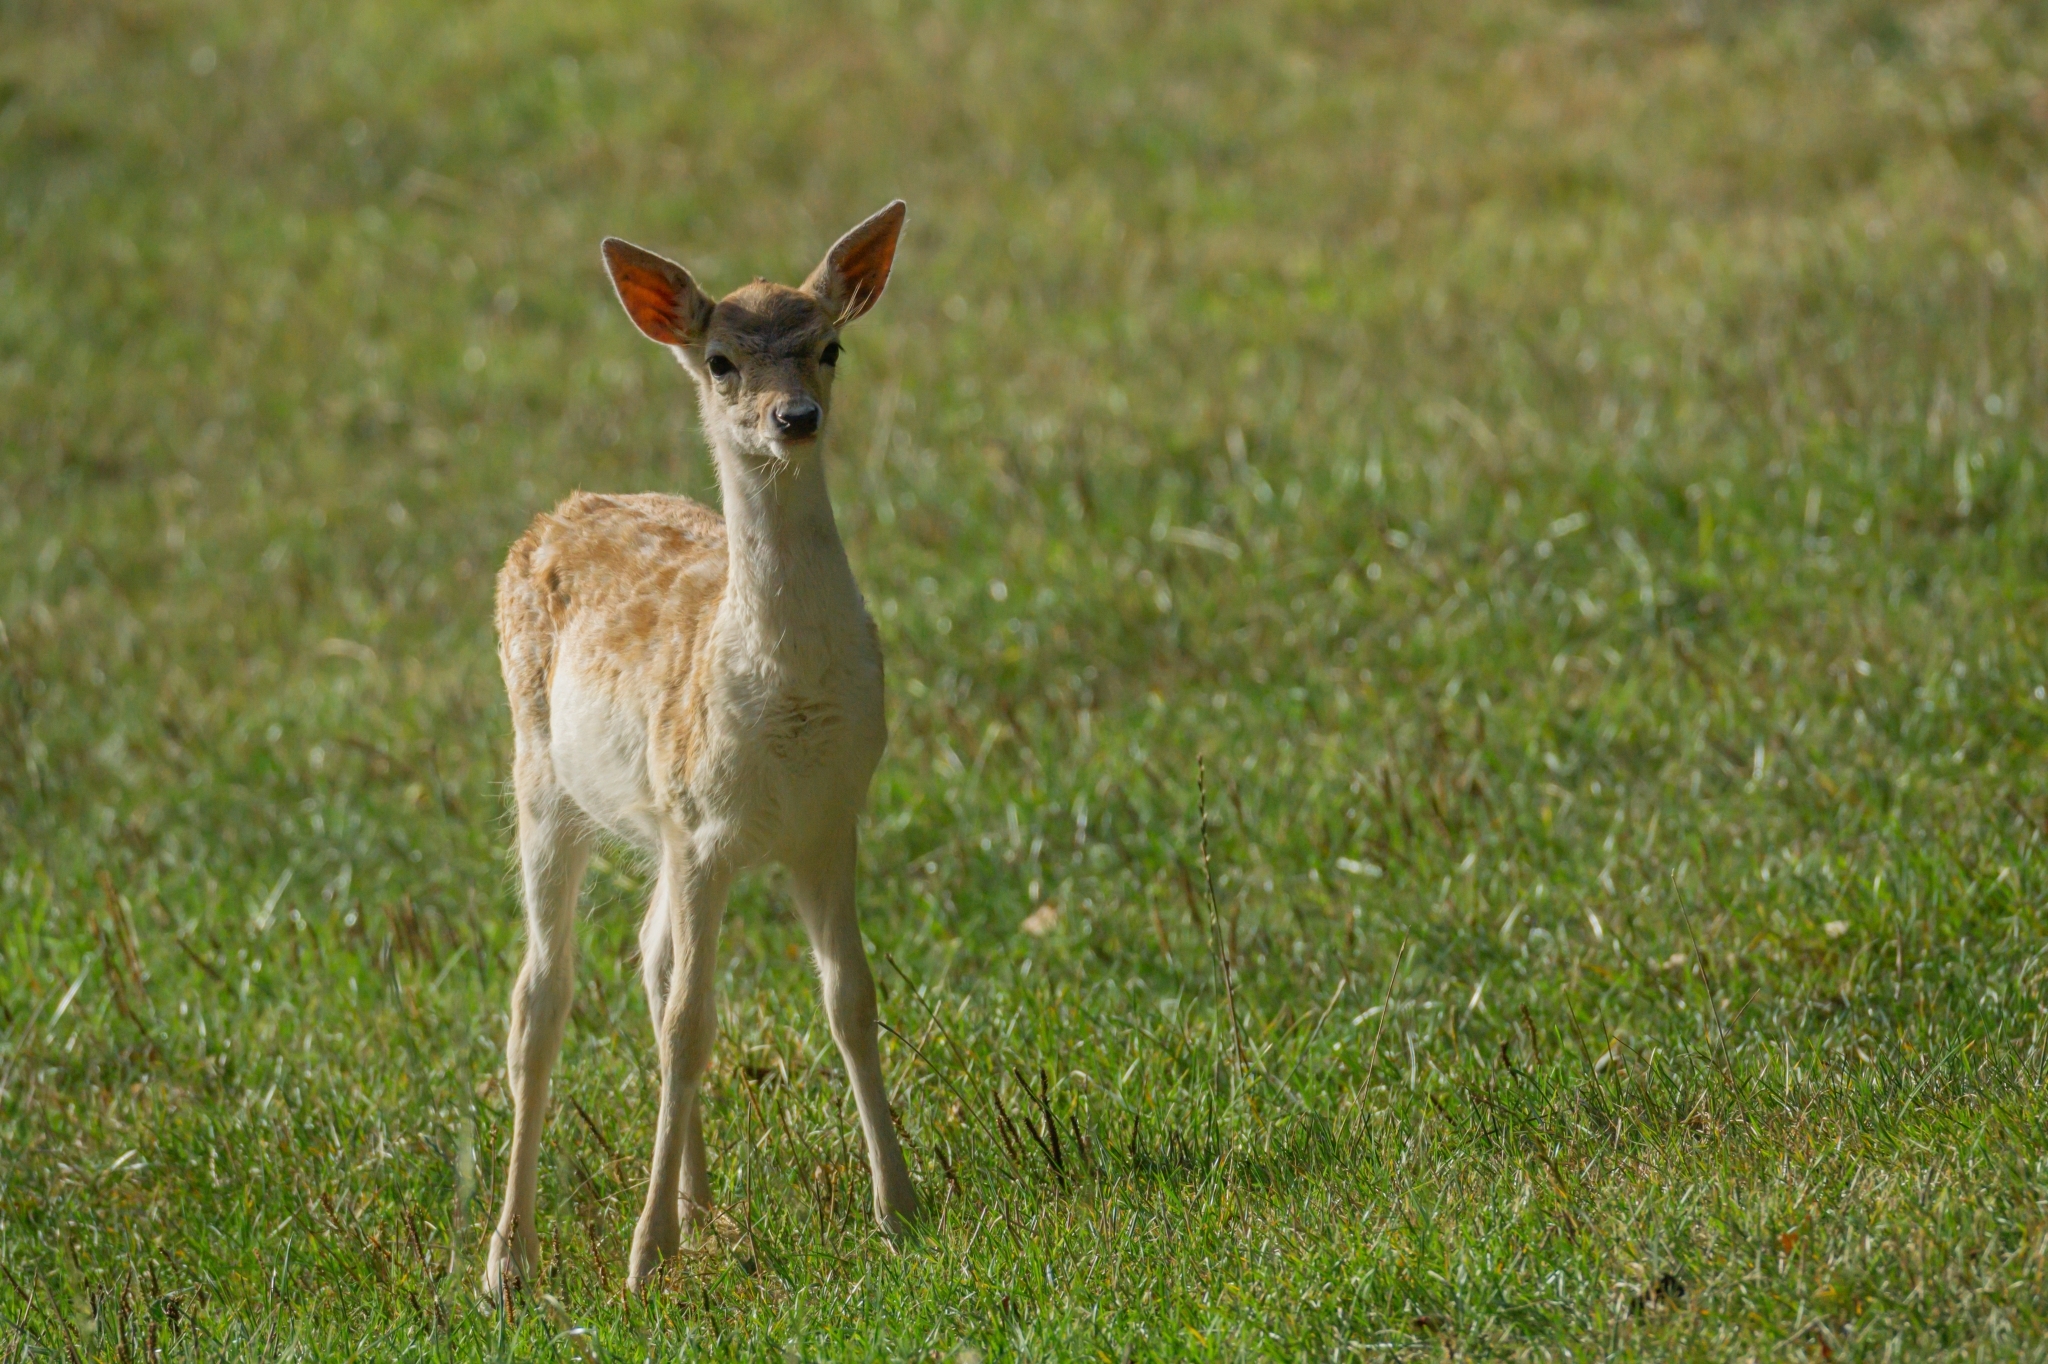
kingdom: Animalia
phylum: Chordata
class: Mammalia
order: Artiodactyla
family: Cervidae
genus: Dama
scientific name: Dama dama
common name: Fallow deer
